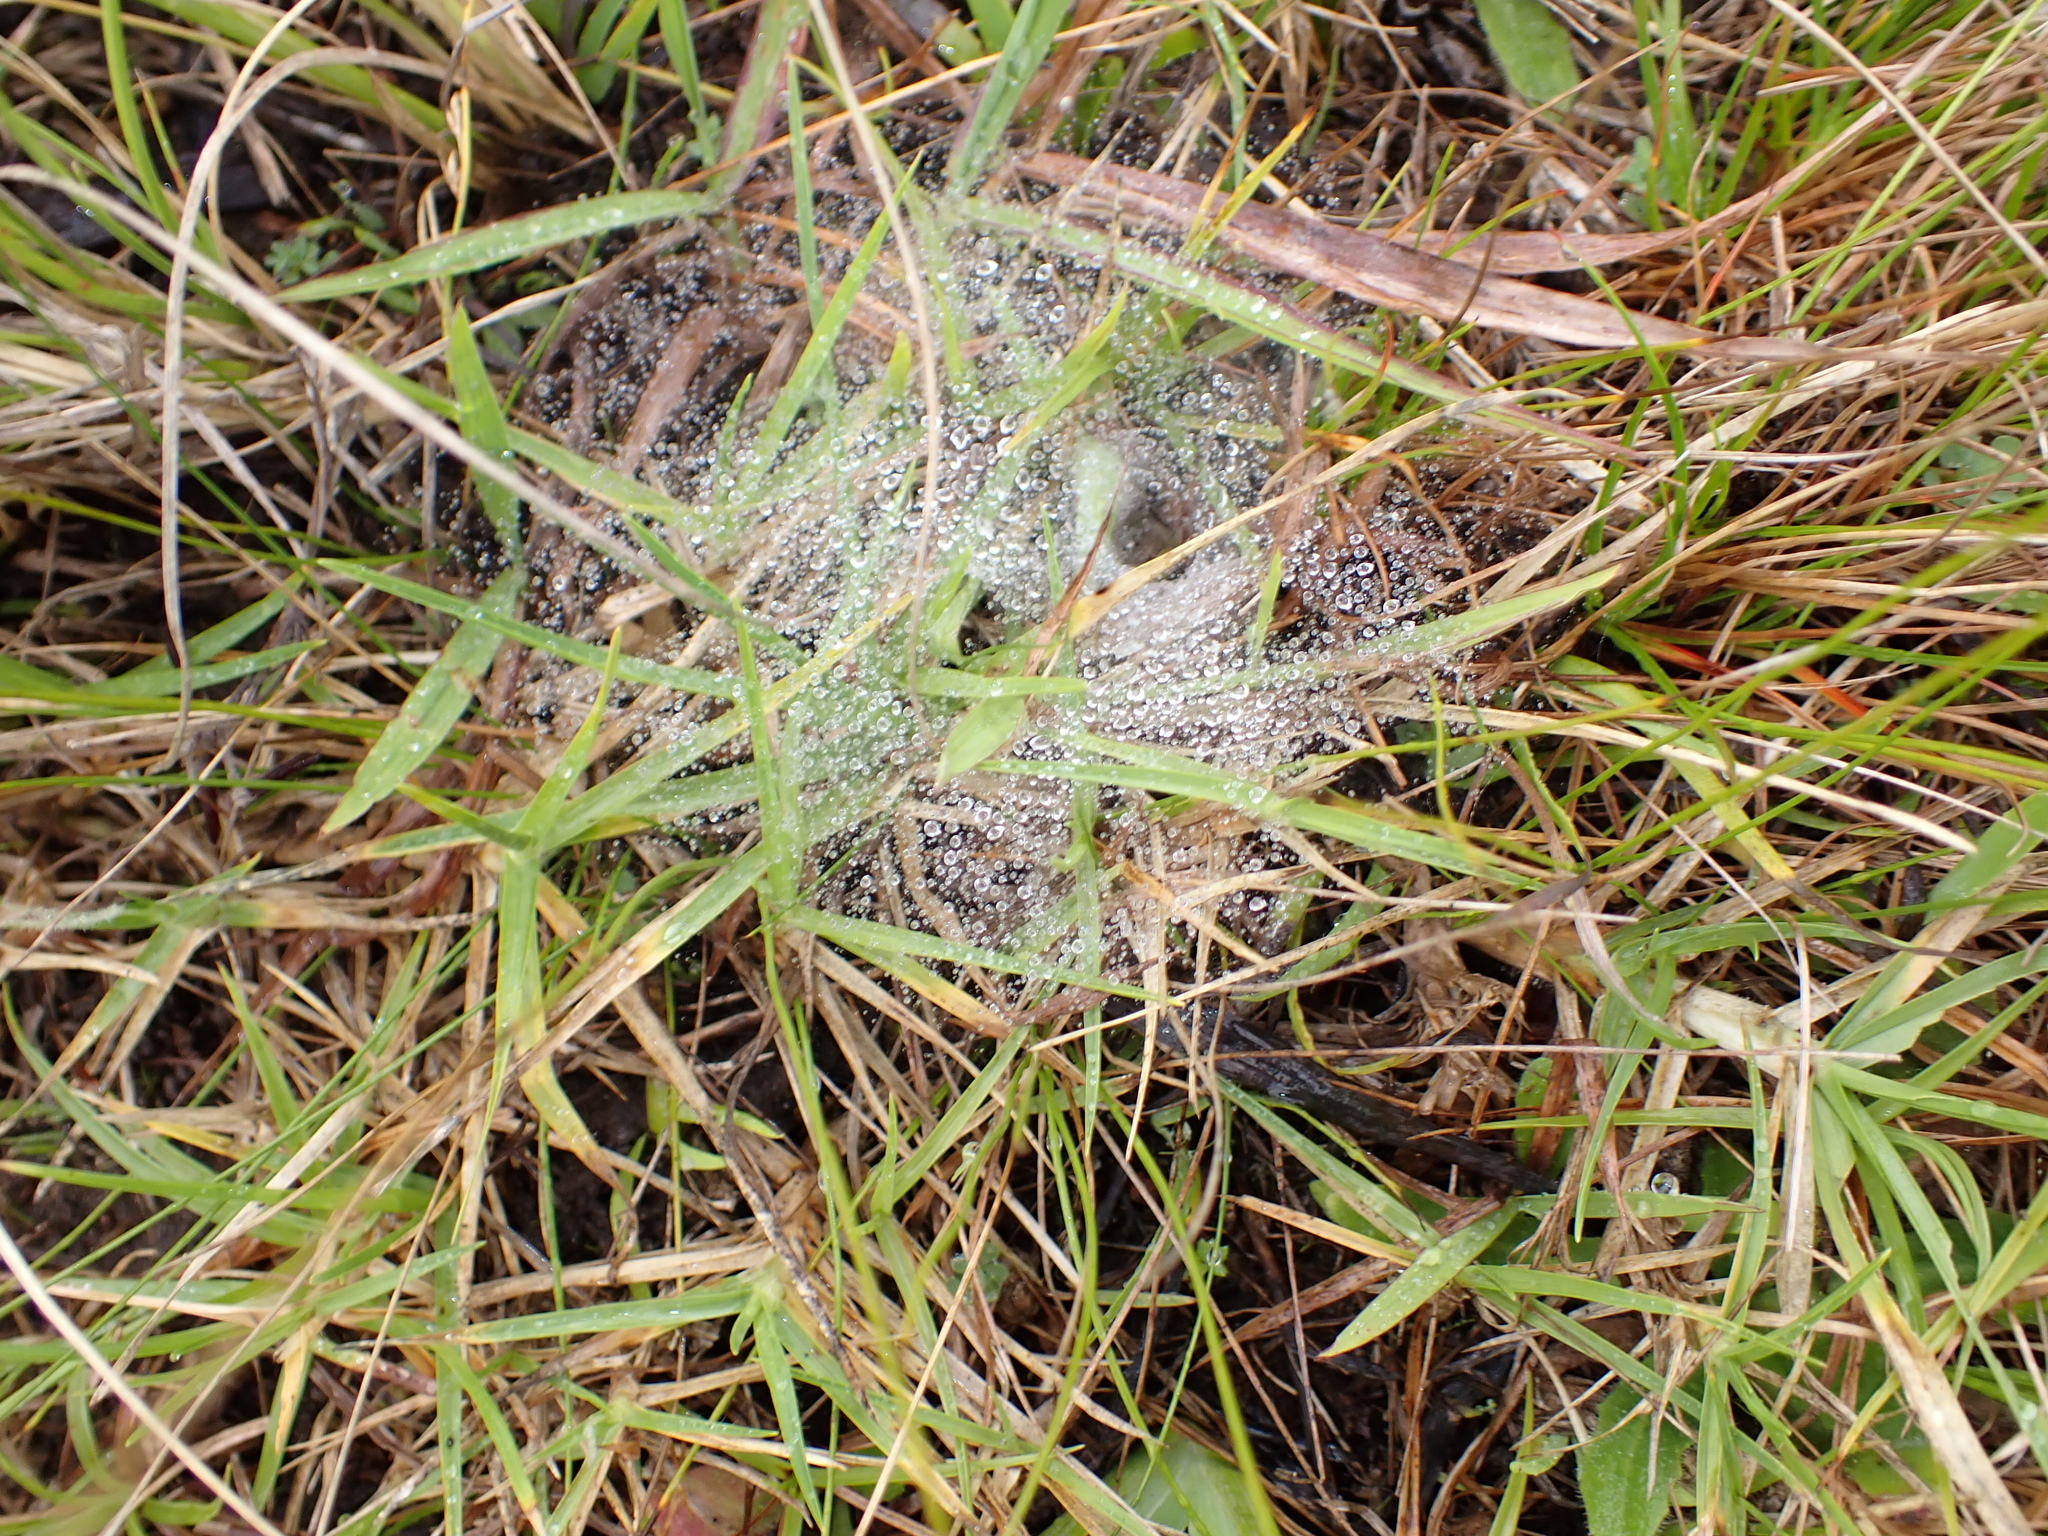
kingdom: Animalia
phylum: Arthropoda
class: Arachnida
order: Araneae
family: Pisauridae
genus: Euprosthenopsis
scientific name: Euprosthenopsis pulchella
